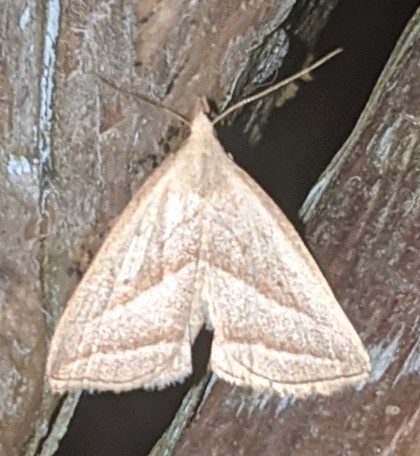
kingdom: Animalia
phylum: Arthropoda
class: Insecta
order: Lepidoptera
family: Erebidae
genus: Macrochilo
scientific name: Macrochilo absorptalis
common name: Slant-lined owlet
